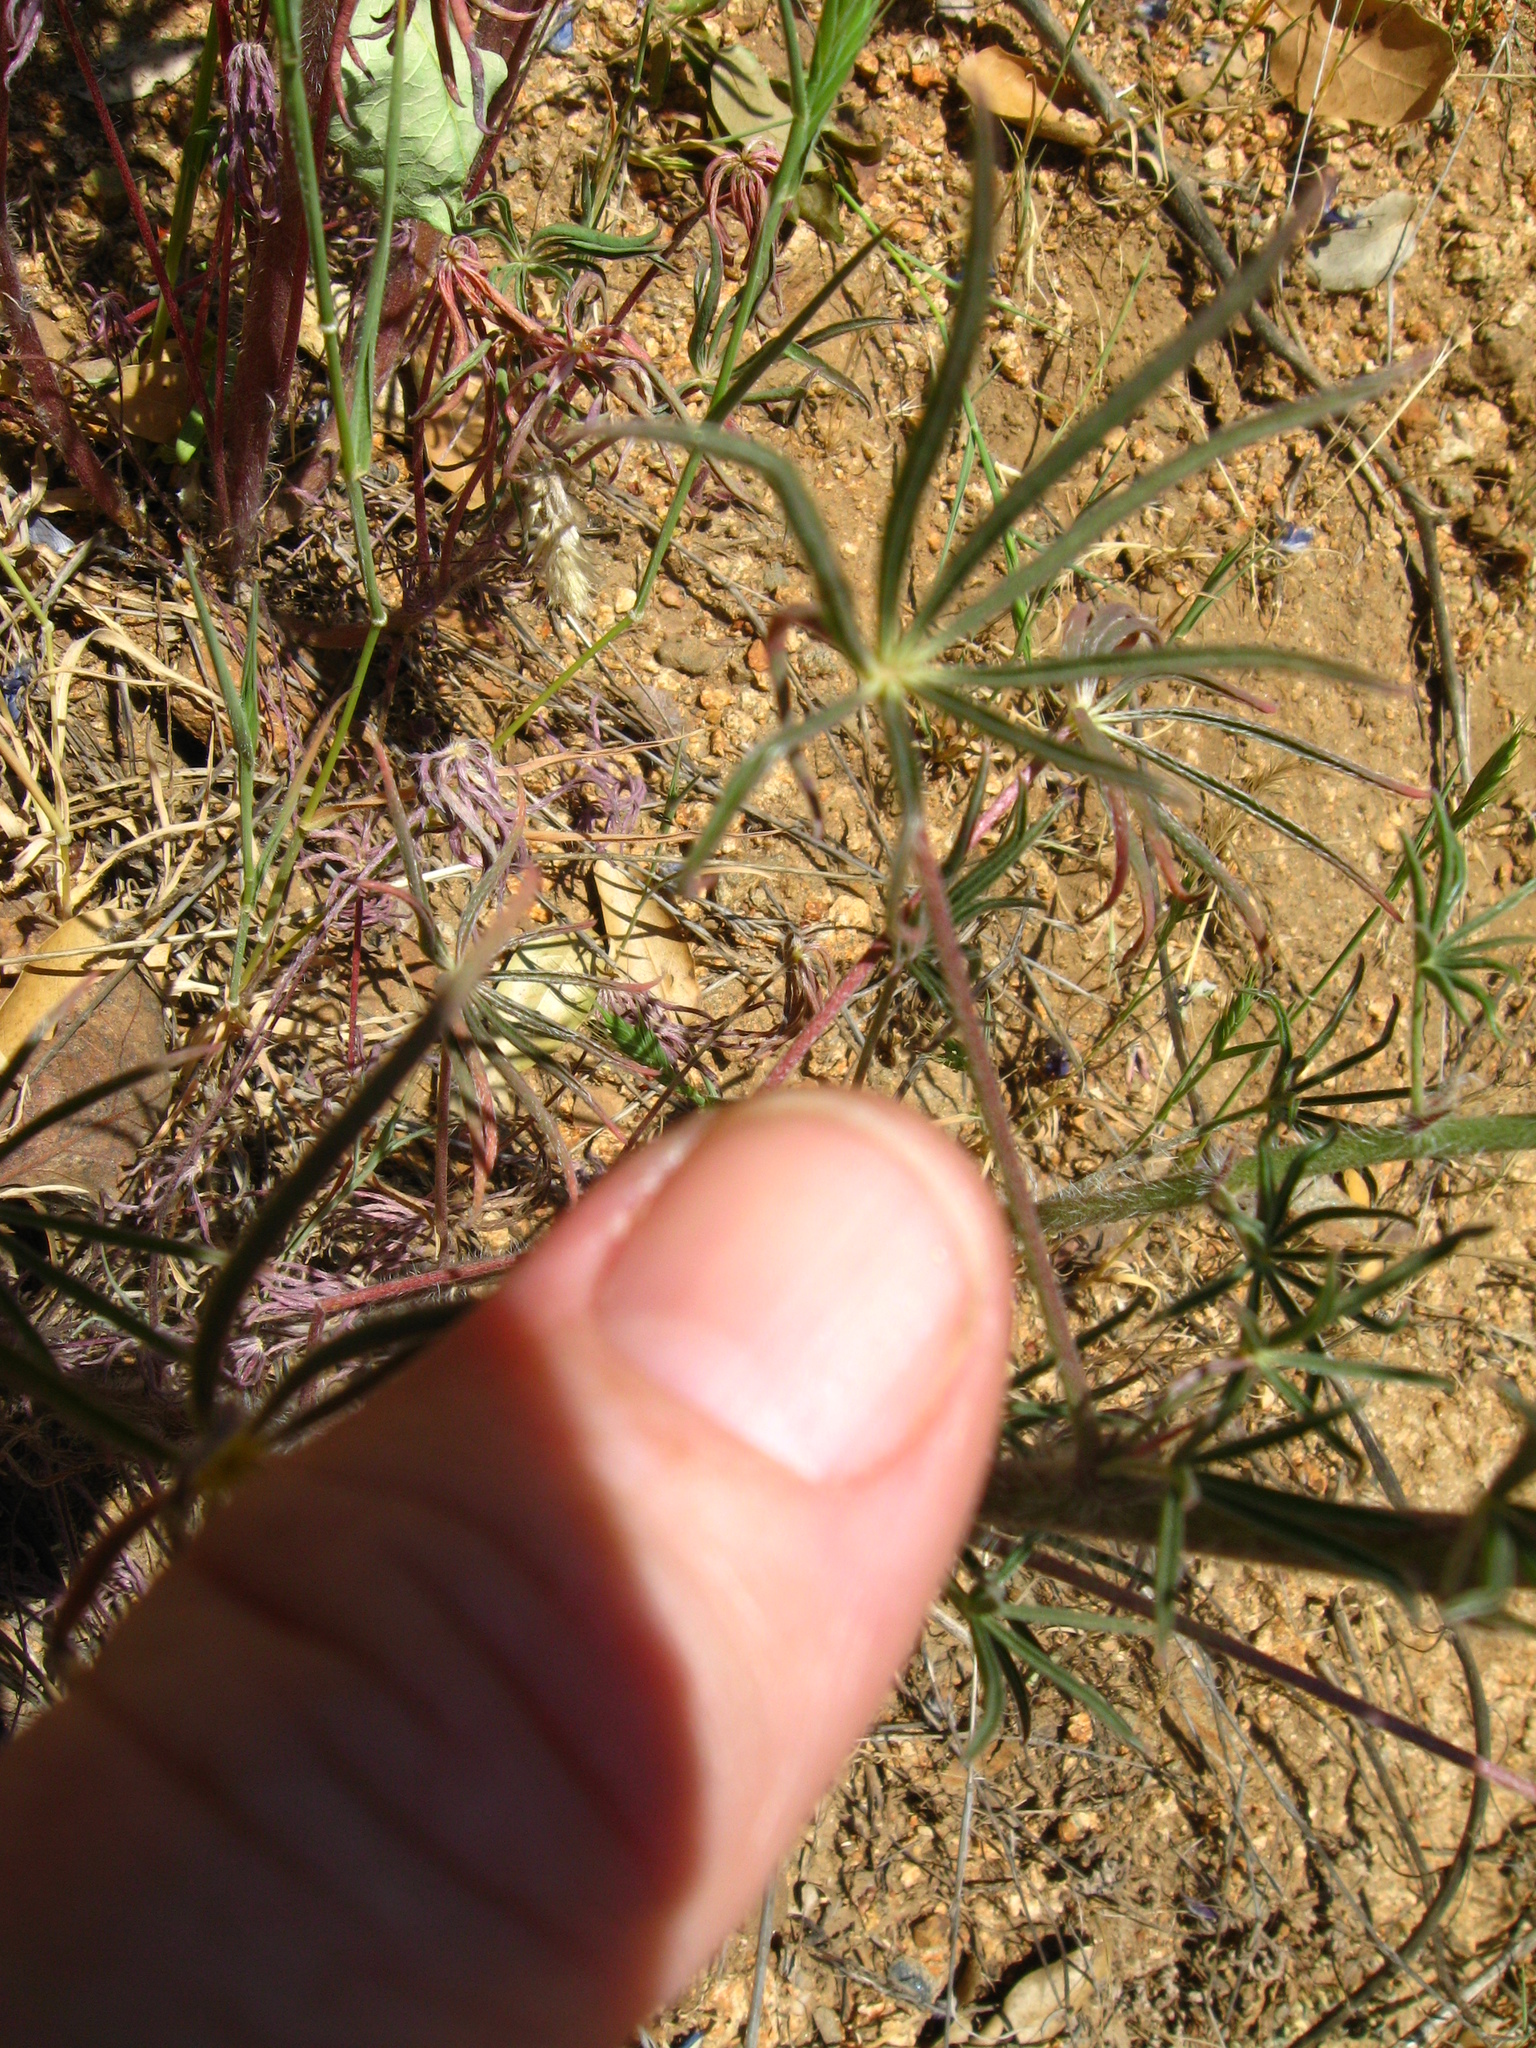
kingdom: Plantae
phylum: Tracheophyta
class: Magnoliopsida
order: Fabales
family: Fabaceae
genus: Lupinus
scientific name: Lupinus benthamii
